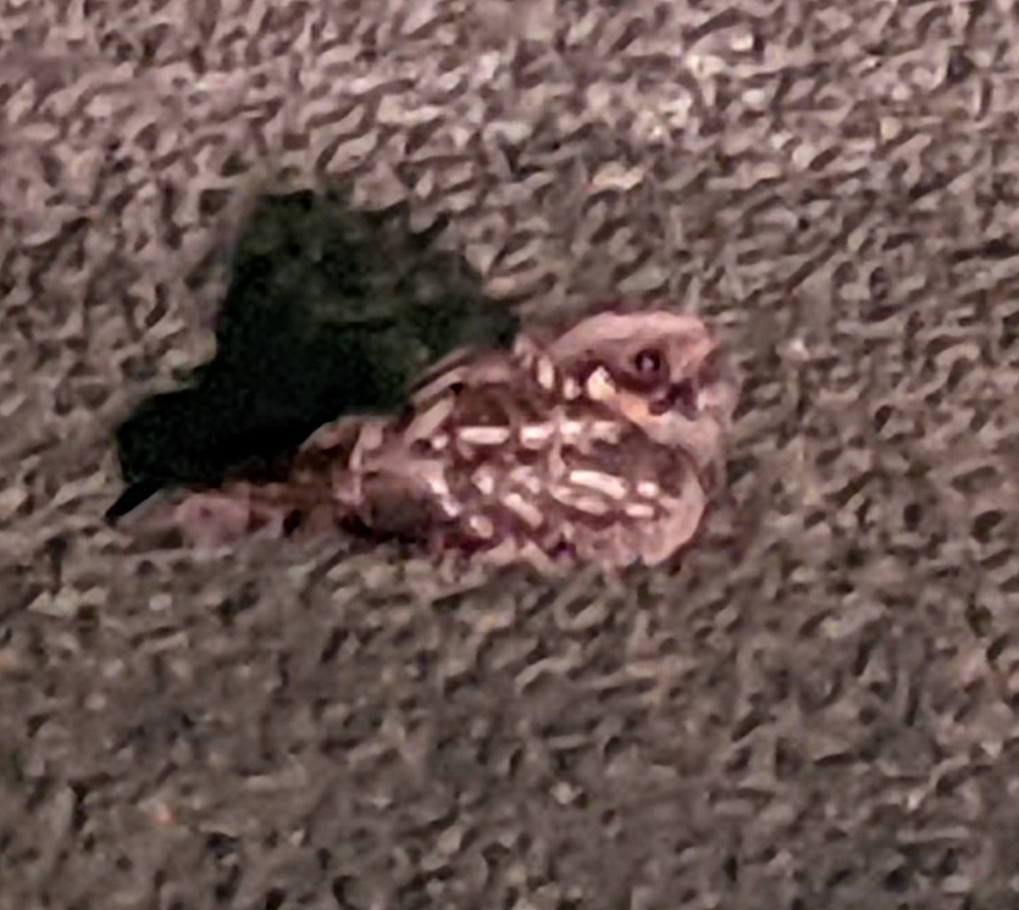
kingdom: Animalia
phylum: Chordata
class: Aves
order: Caprimulgiformes
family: Caprimulgidae
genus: Caprimulgus
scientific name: Caprimulgus pectoralis
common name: Fiery-necked nightjar
